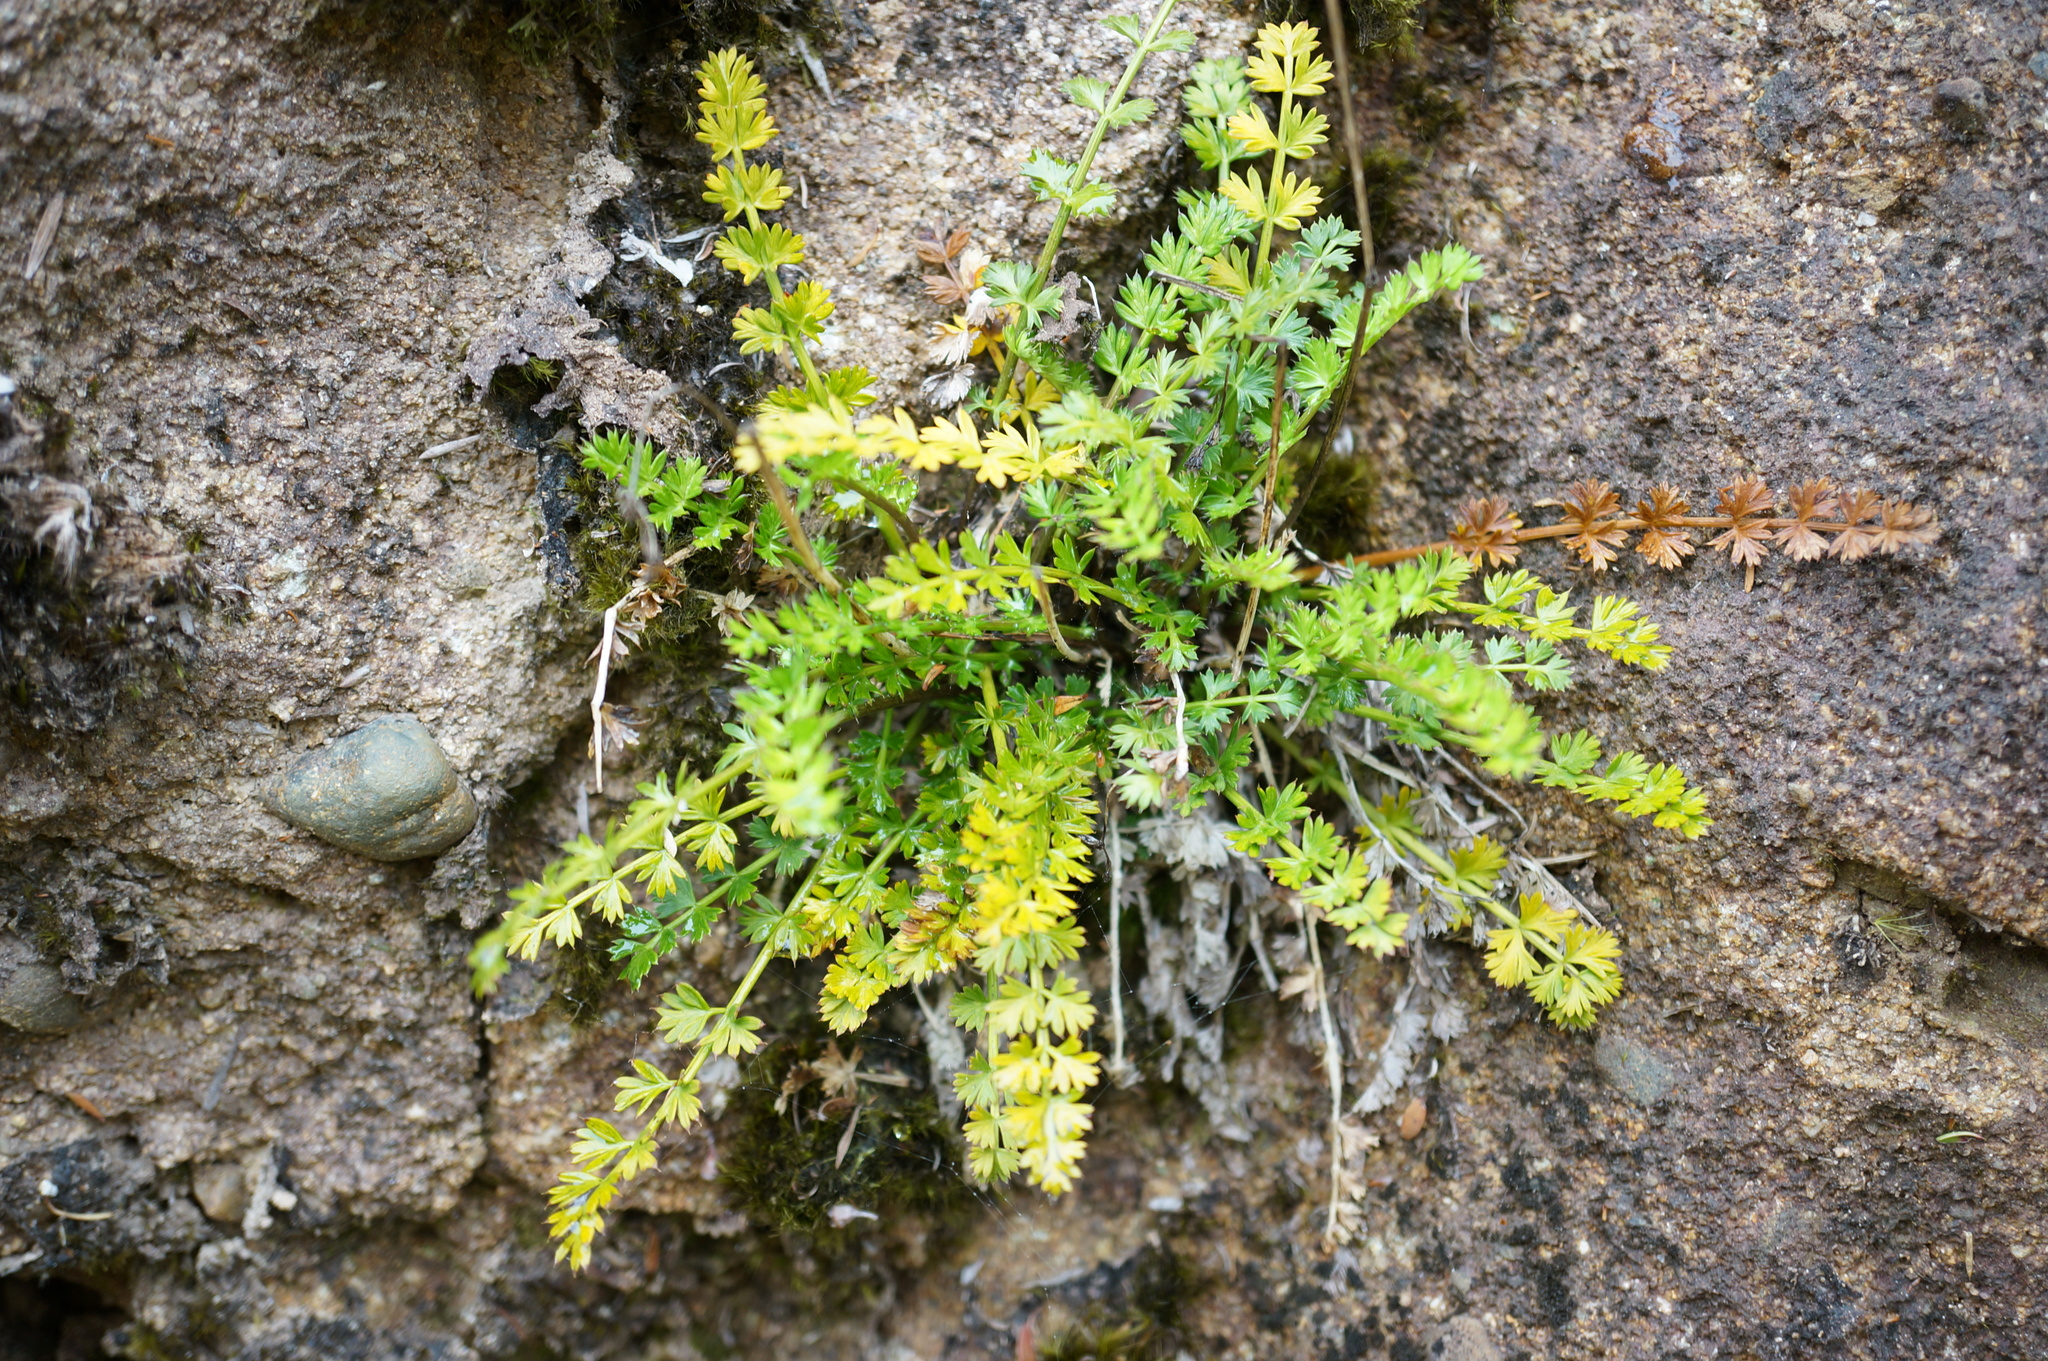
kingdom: Plantae
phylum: Tracheophyta
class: Magnoliopsida
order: Apiales
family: Apiaceae
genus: Anisotome
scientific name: Anisotome aromatica
